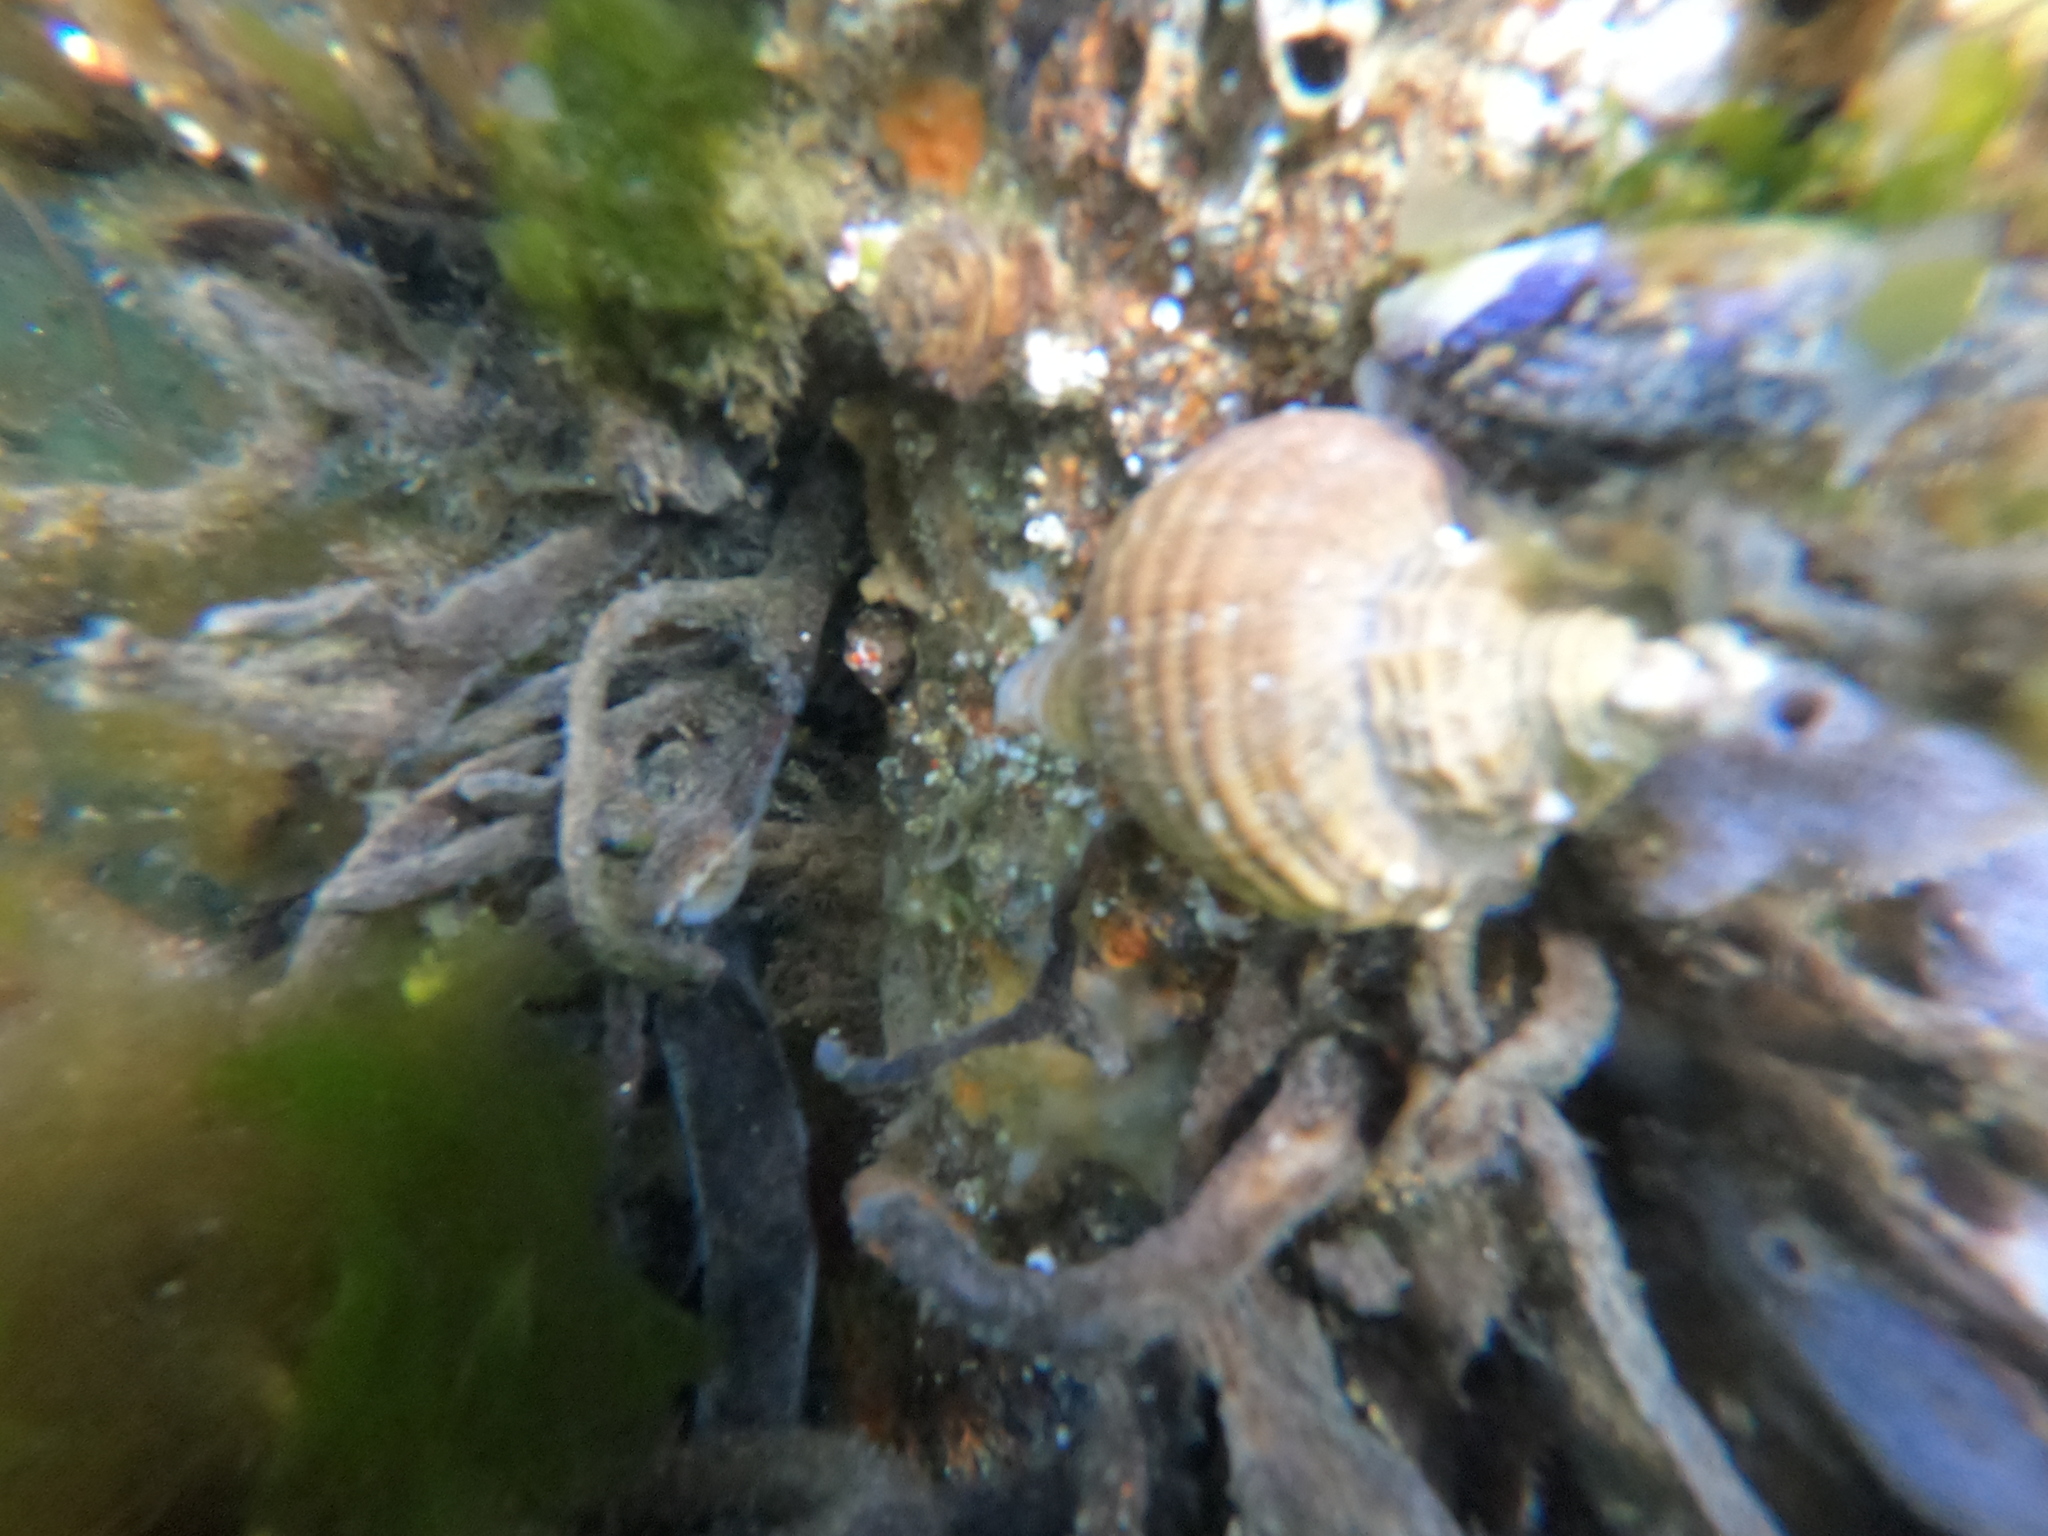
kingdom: Animalia
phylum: Mollusca
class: Gastropoda
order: Neogastropoda
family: Muricidae
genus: Trophon
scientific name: Trophon geversianus
